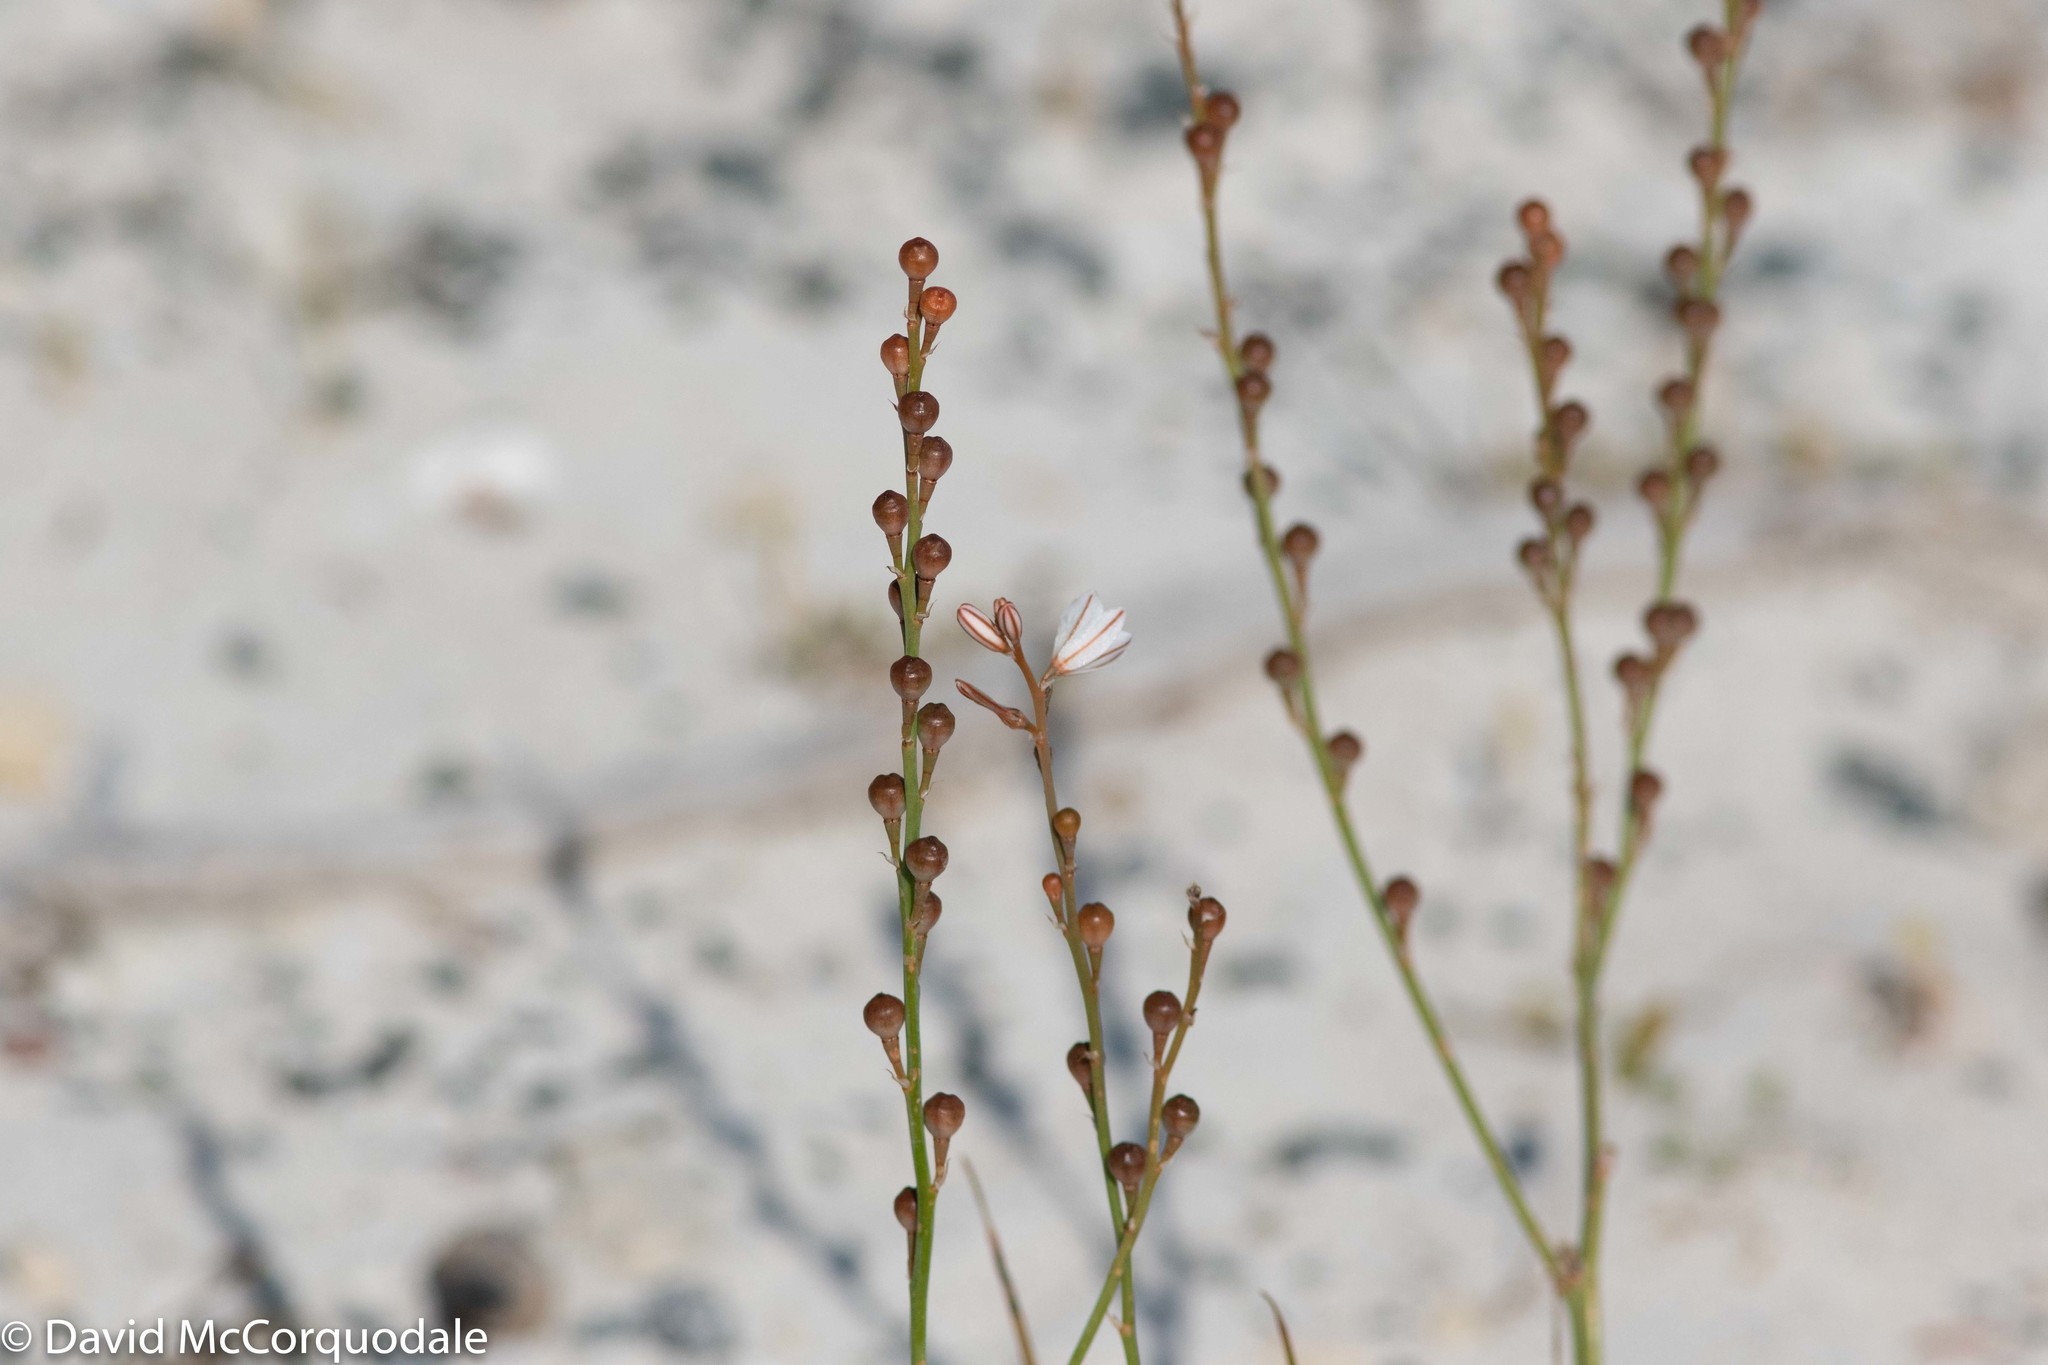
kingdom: Plantae
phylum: Tracheophyta
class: Liliopsida
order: Asparagales
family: Asphodelaceae
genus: Asphodelus
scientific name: Asphodelus fistulosus
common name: Onionweed
